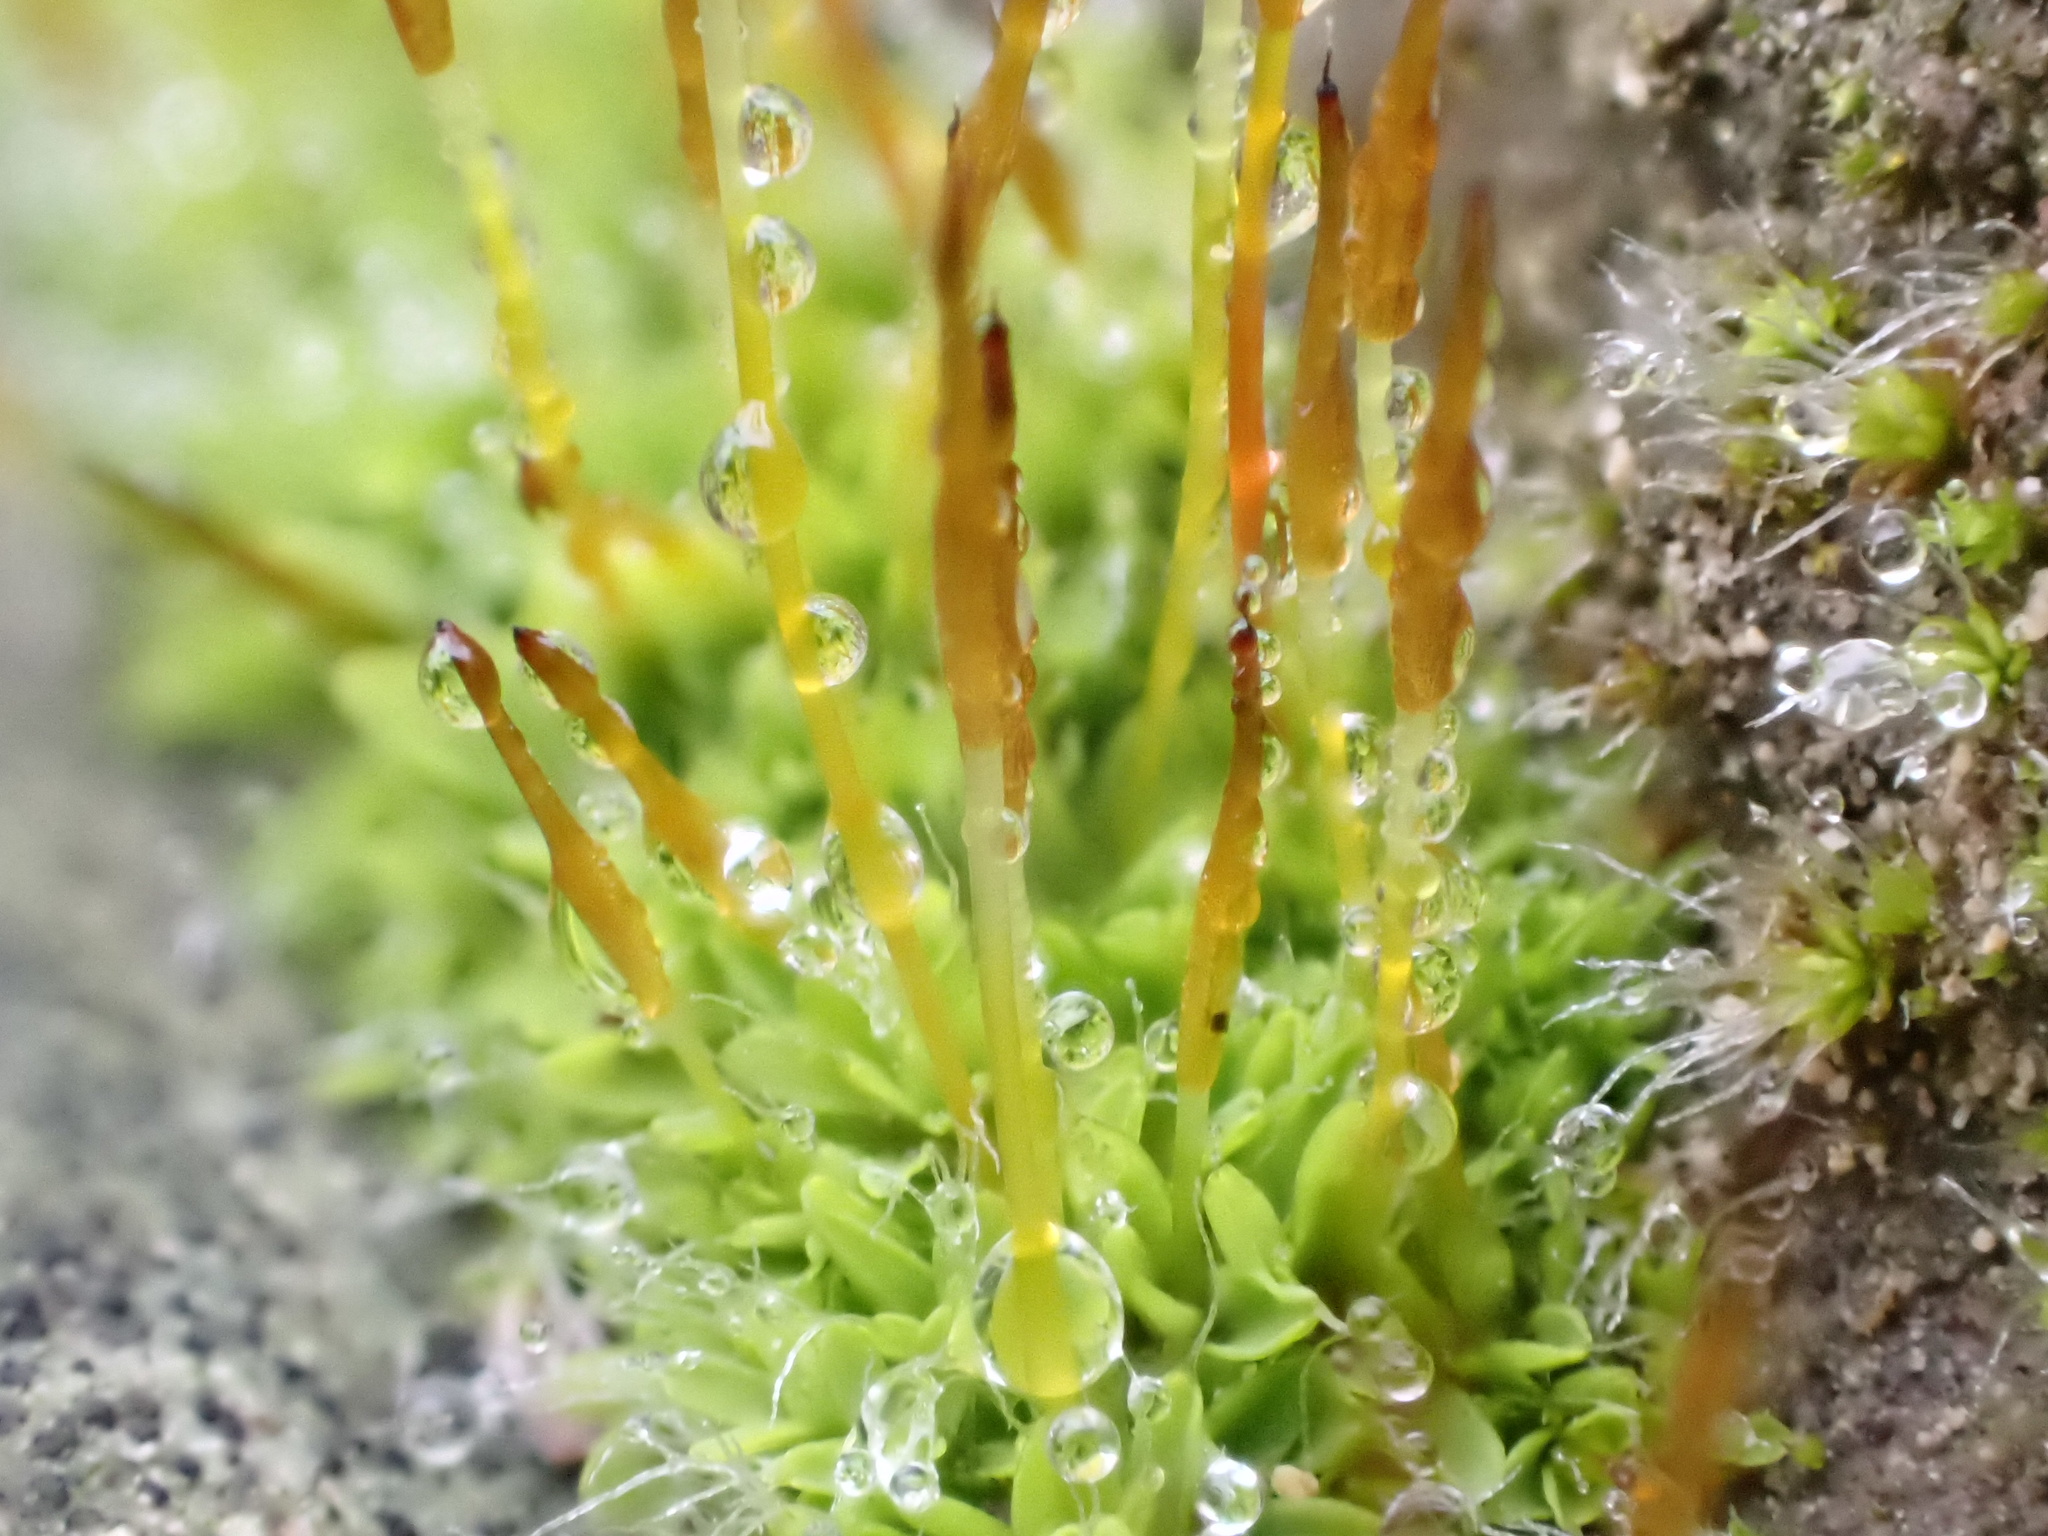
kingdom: Plantae
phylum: Bryophyta
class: Bryopsida
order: Pottiales
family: Pottiaceae
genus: Tortula
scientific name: Tortula muralis
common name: Wall screw-moss
